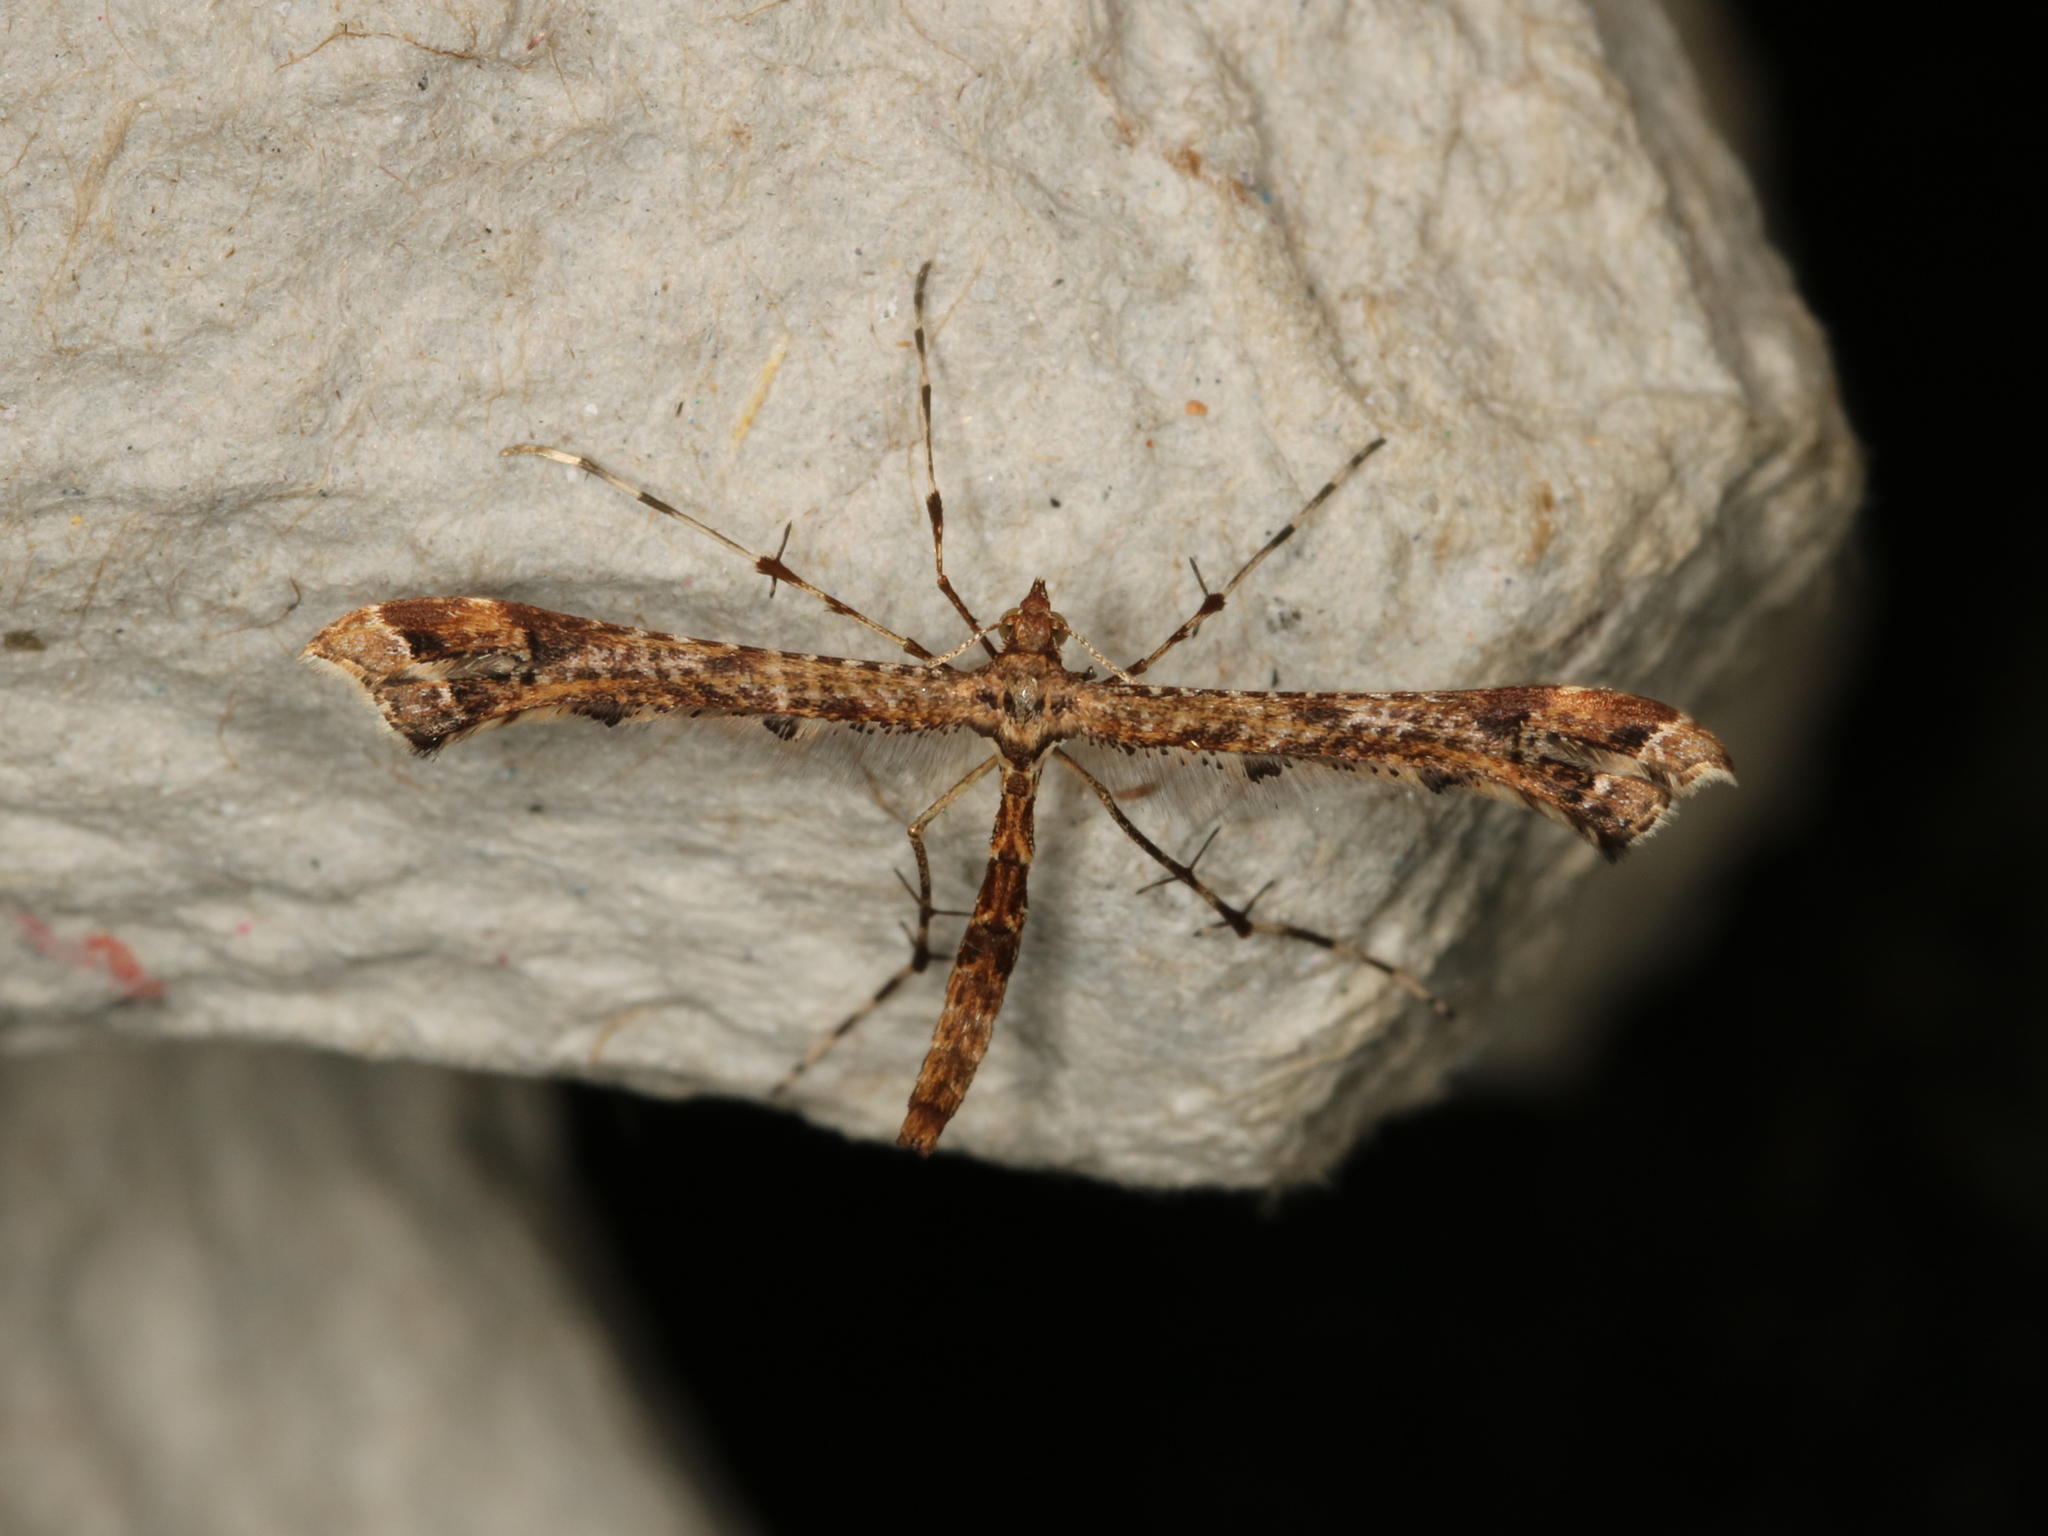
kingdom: Animalia
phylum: Arthropoda
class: Insecta
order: Lepidoptera
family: Pterophoridae
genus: Amblyptilia
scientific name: Amblyptilia acanthadactyla
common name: Beautiful plume
